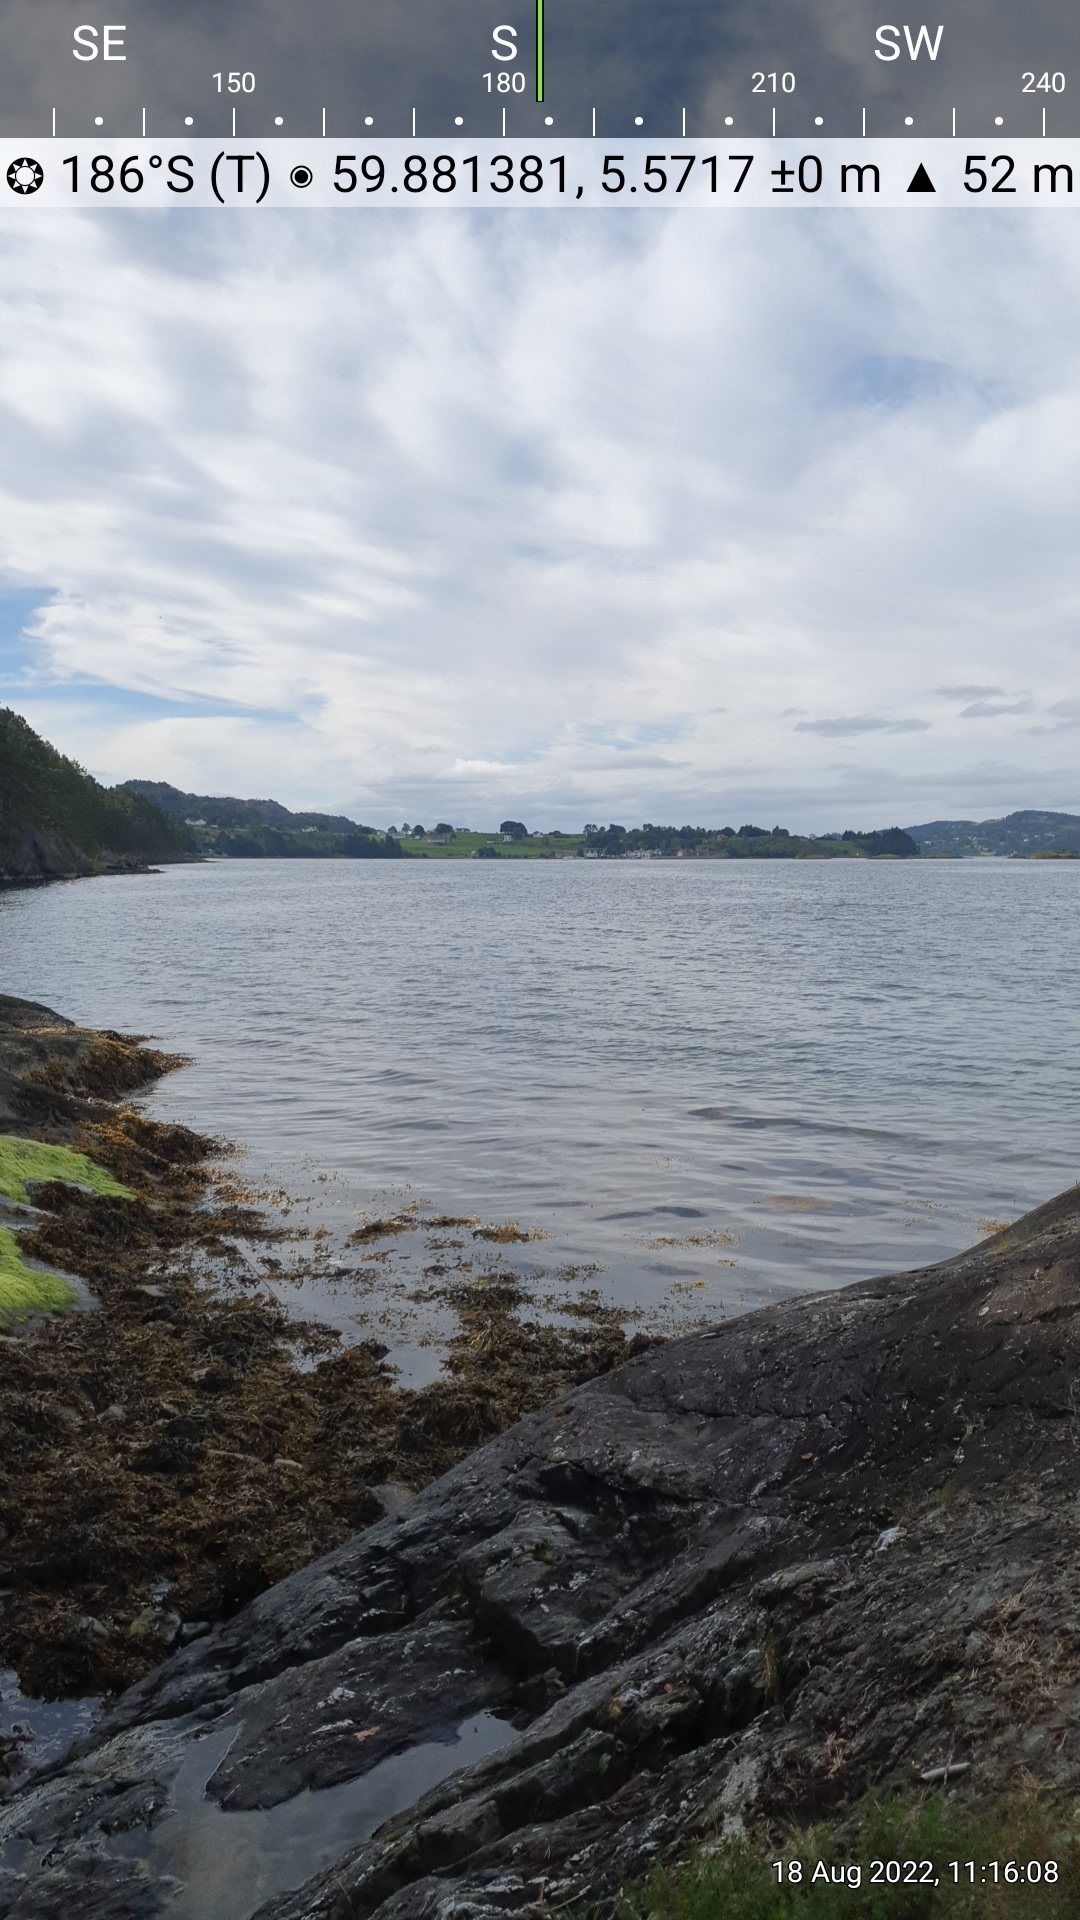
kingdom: Plantae
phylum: Tracheophyta
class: Magnoliopsida
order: Lamiales
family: Lamiaceae
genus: Stachys
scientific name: Stachys palustris
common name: Marsh woundwort
